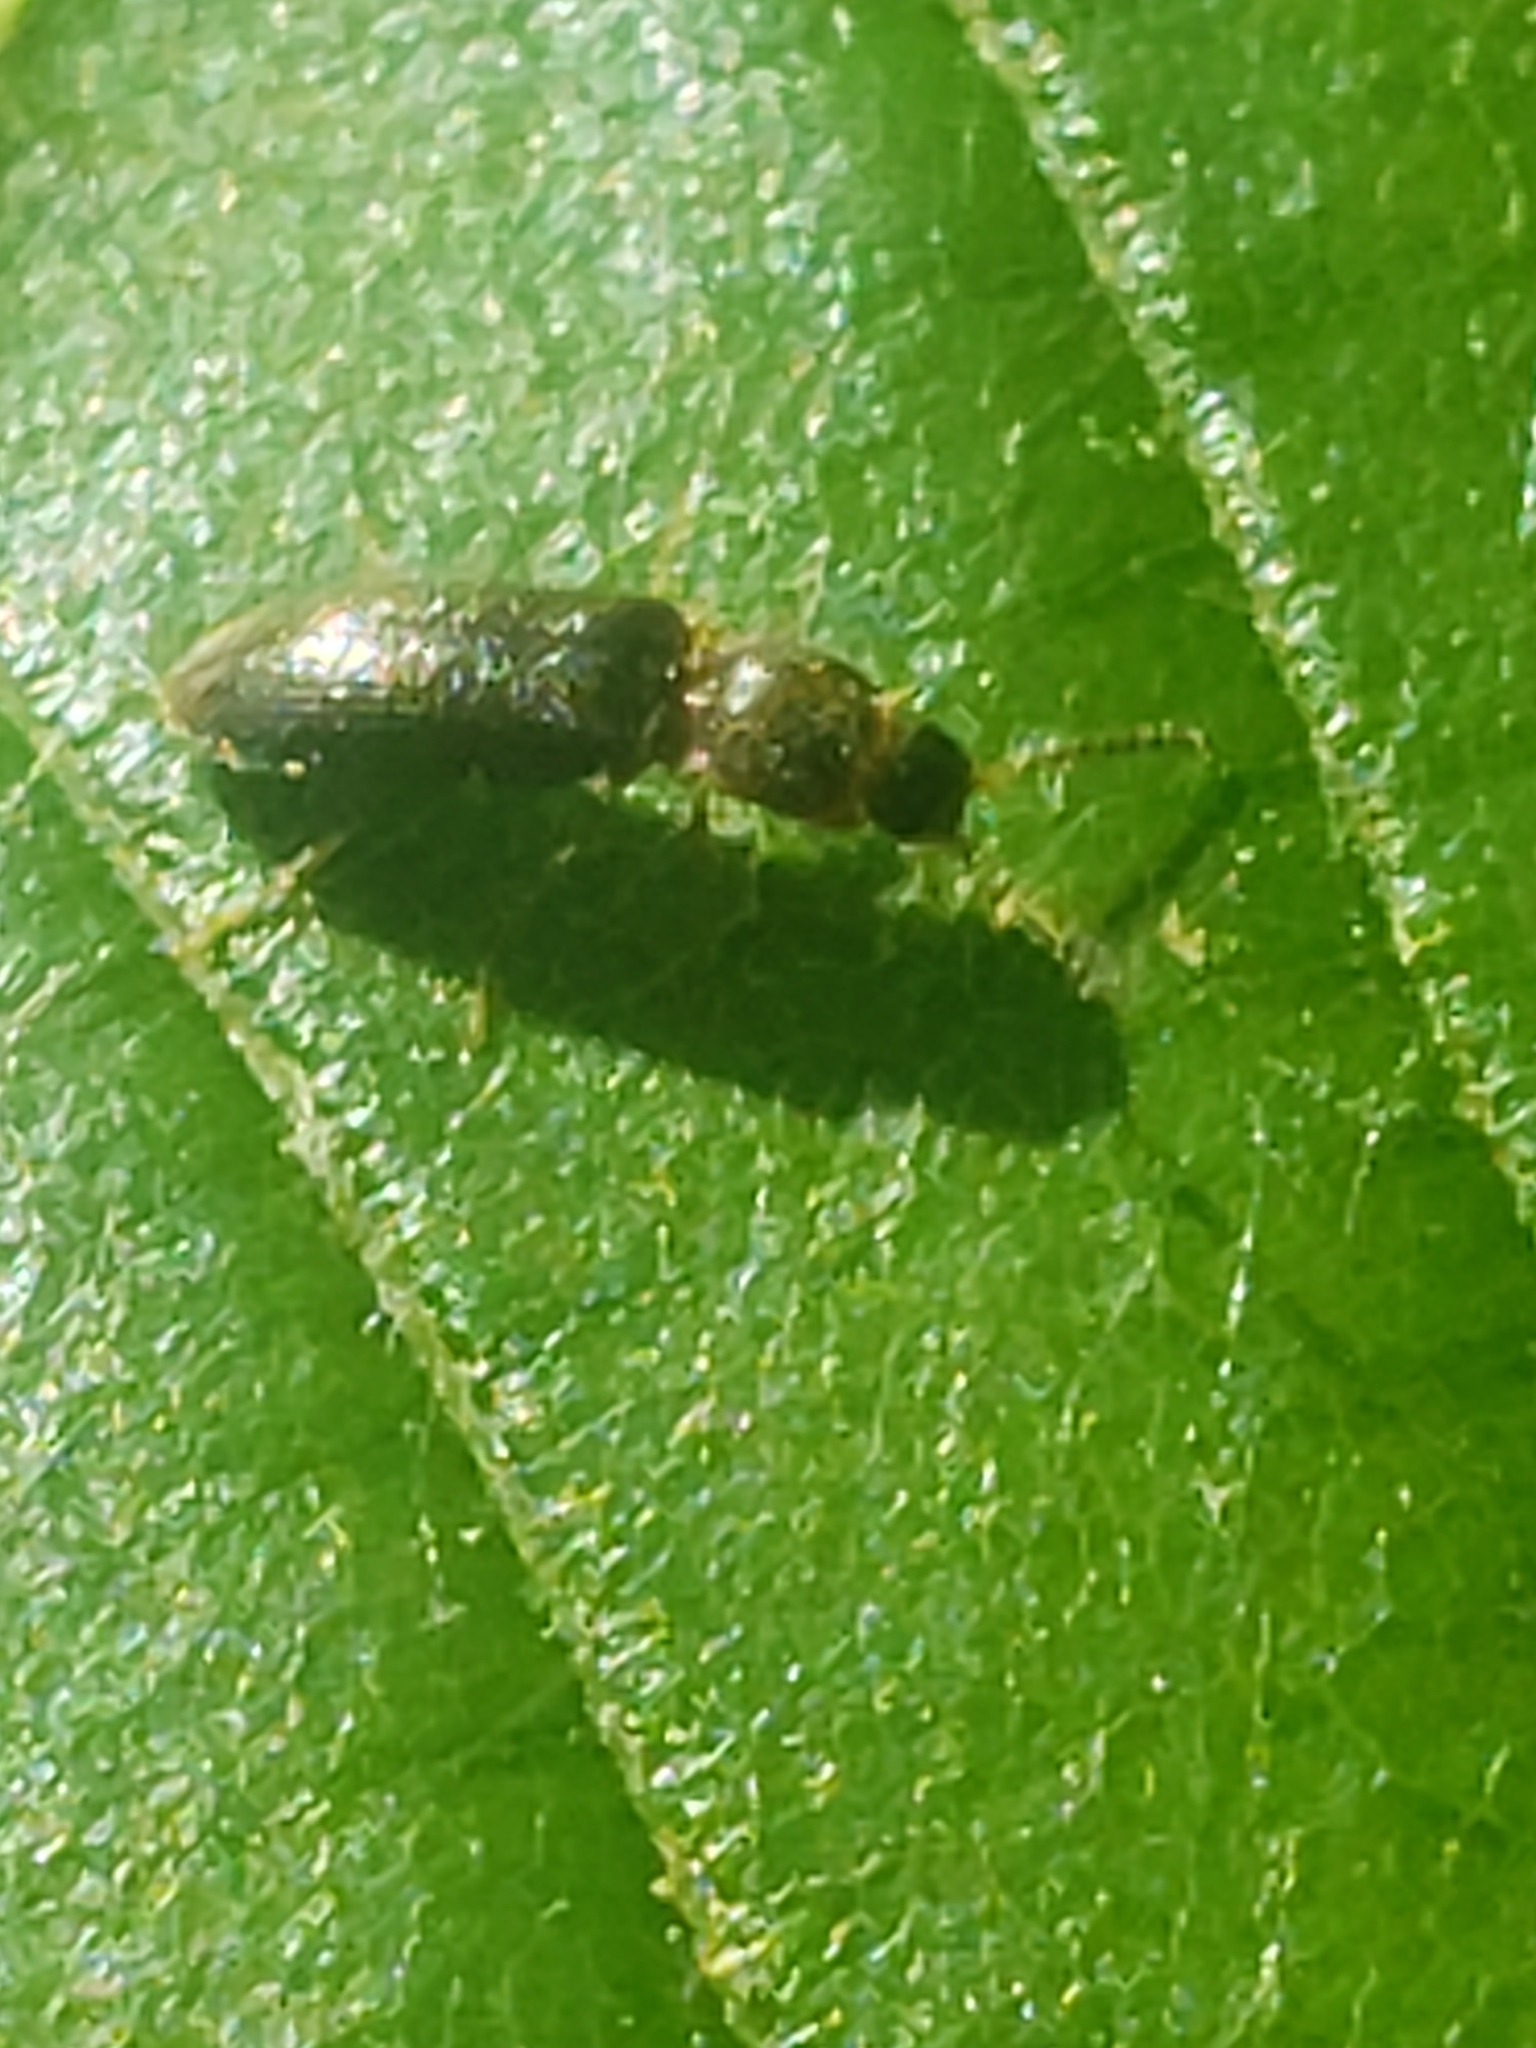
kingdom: Animalia
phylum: Arthropoda
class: Insecta
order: Coleoptera
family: Elateridae
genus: Tetralimonius
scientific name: Tetralimonius
